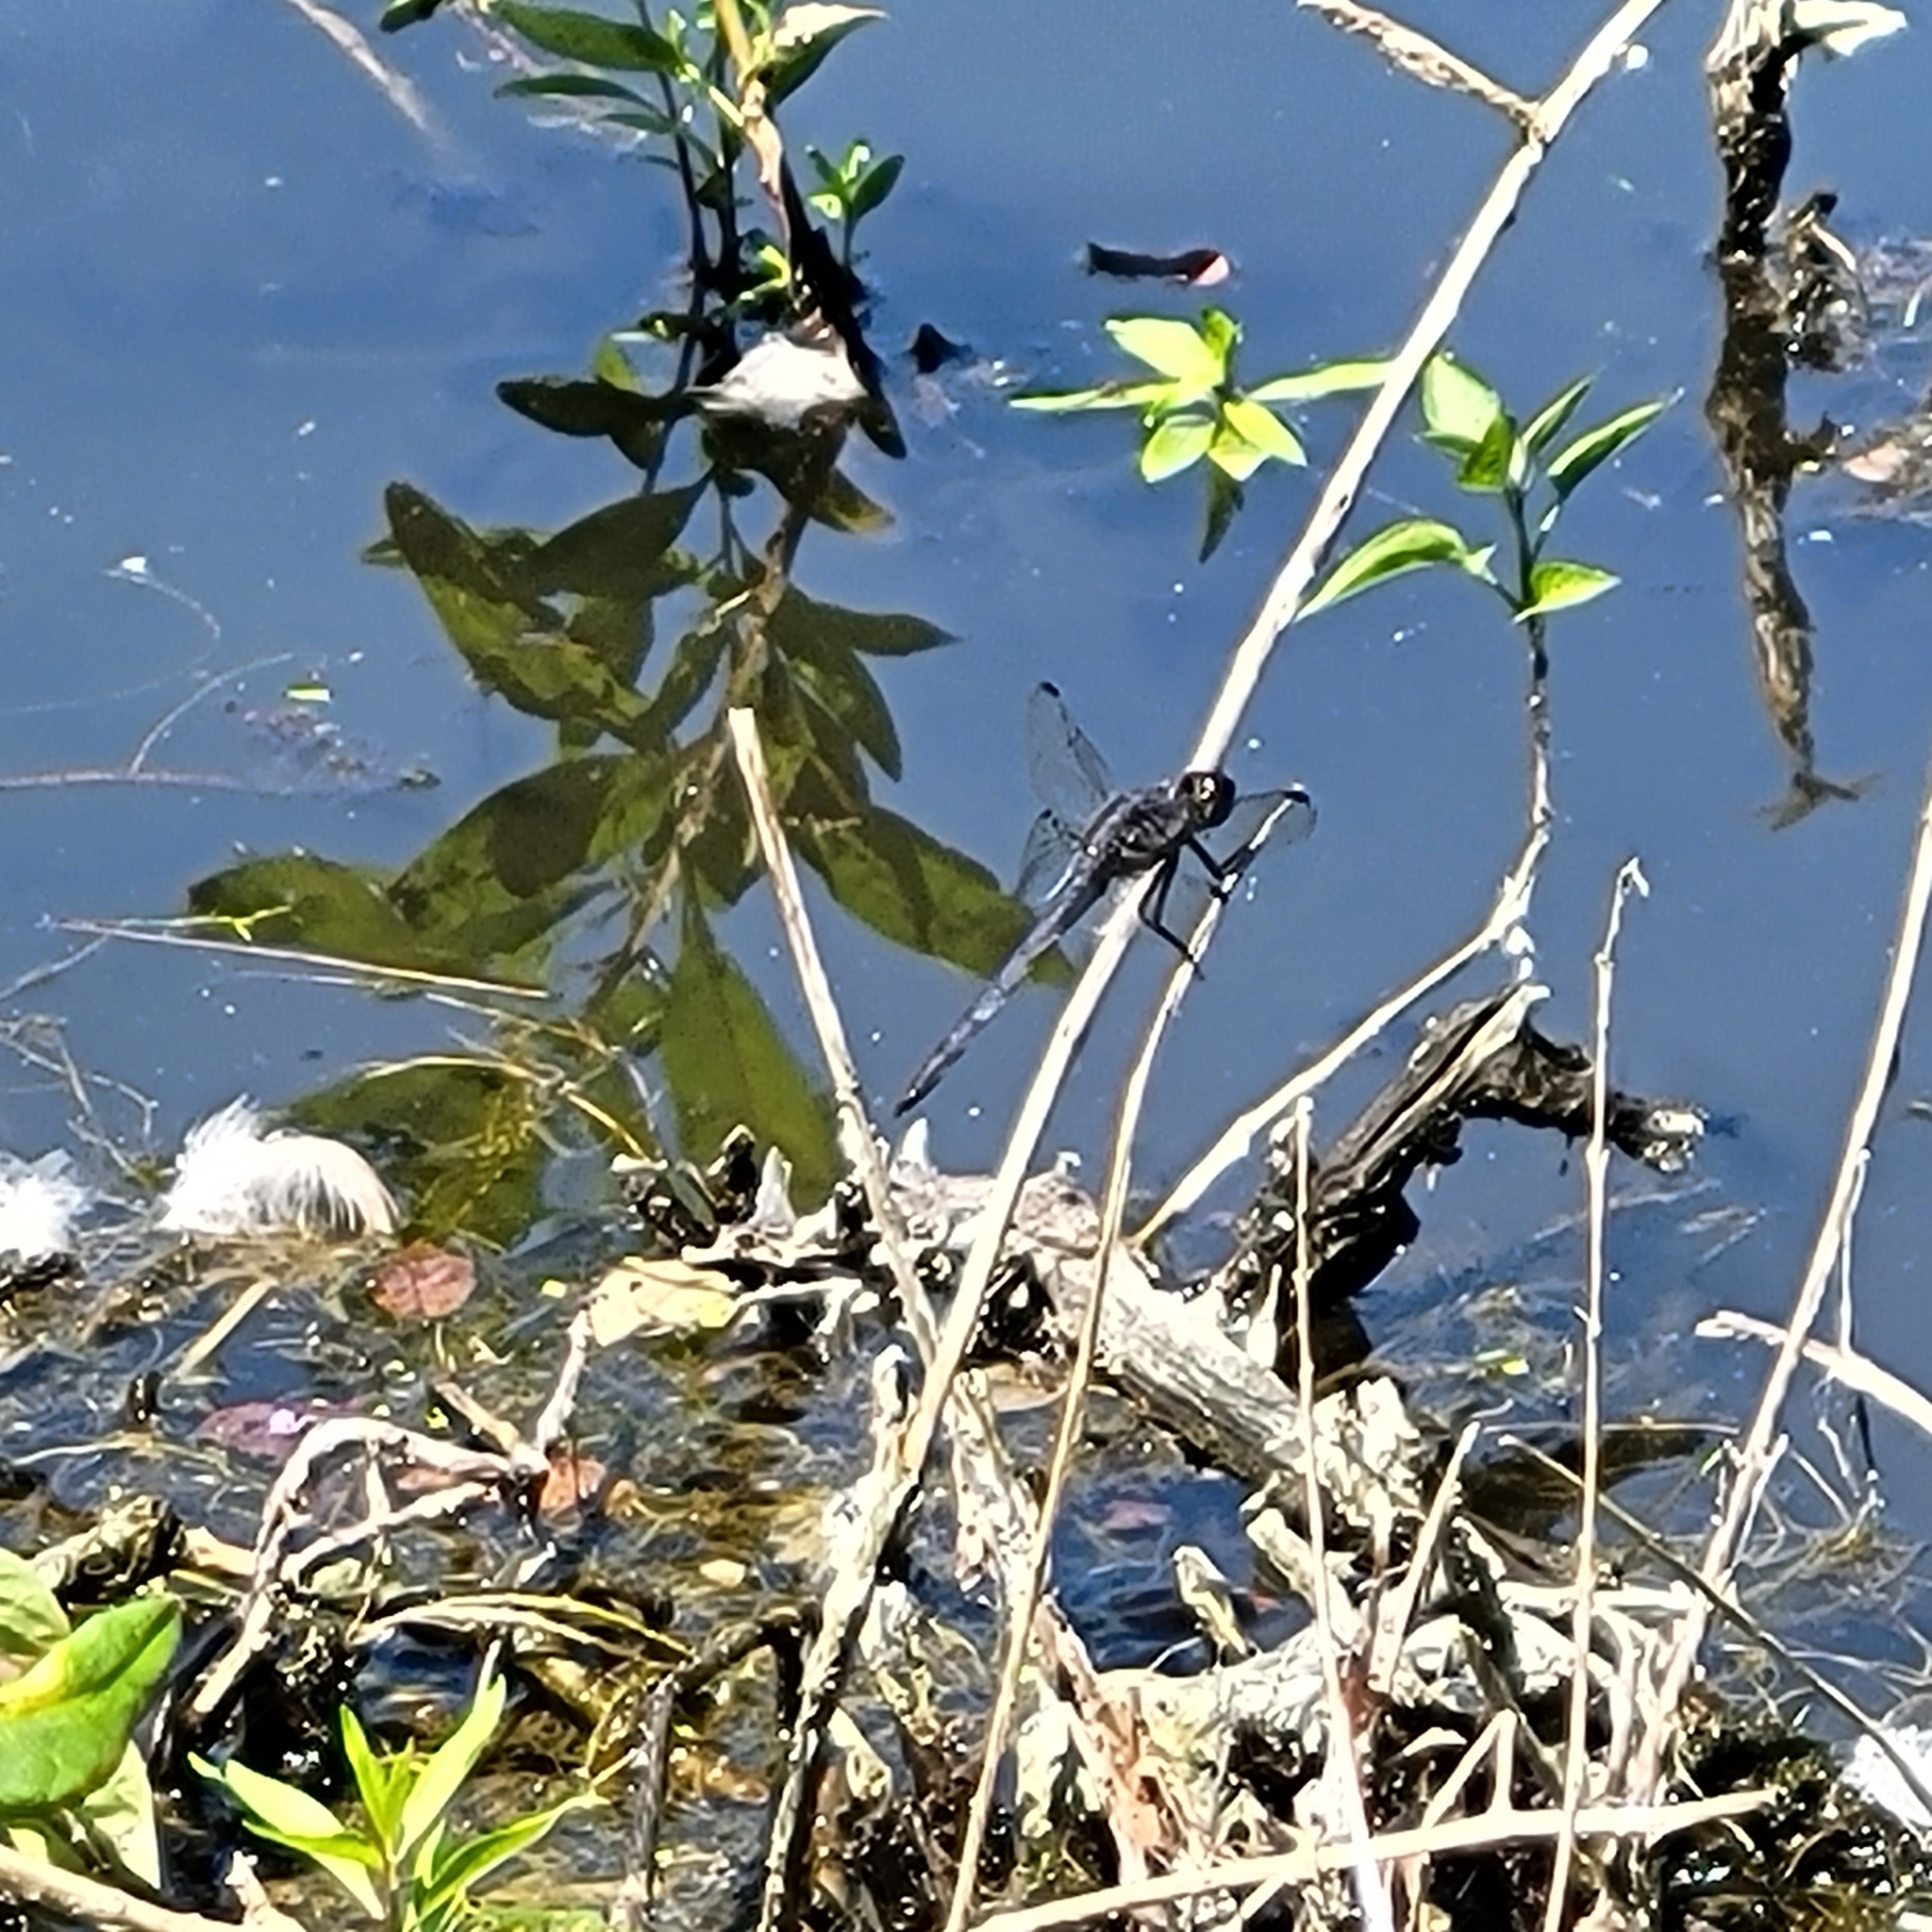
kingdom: Animalia
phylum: Arthropoda
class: Insecta
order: Odonata
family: Libellulidae
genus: Libellula
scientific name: Libellula incesta
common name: Slaty skimmer
